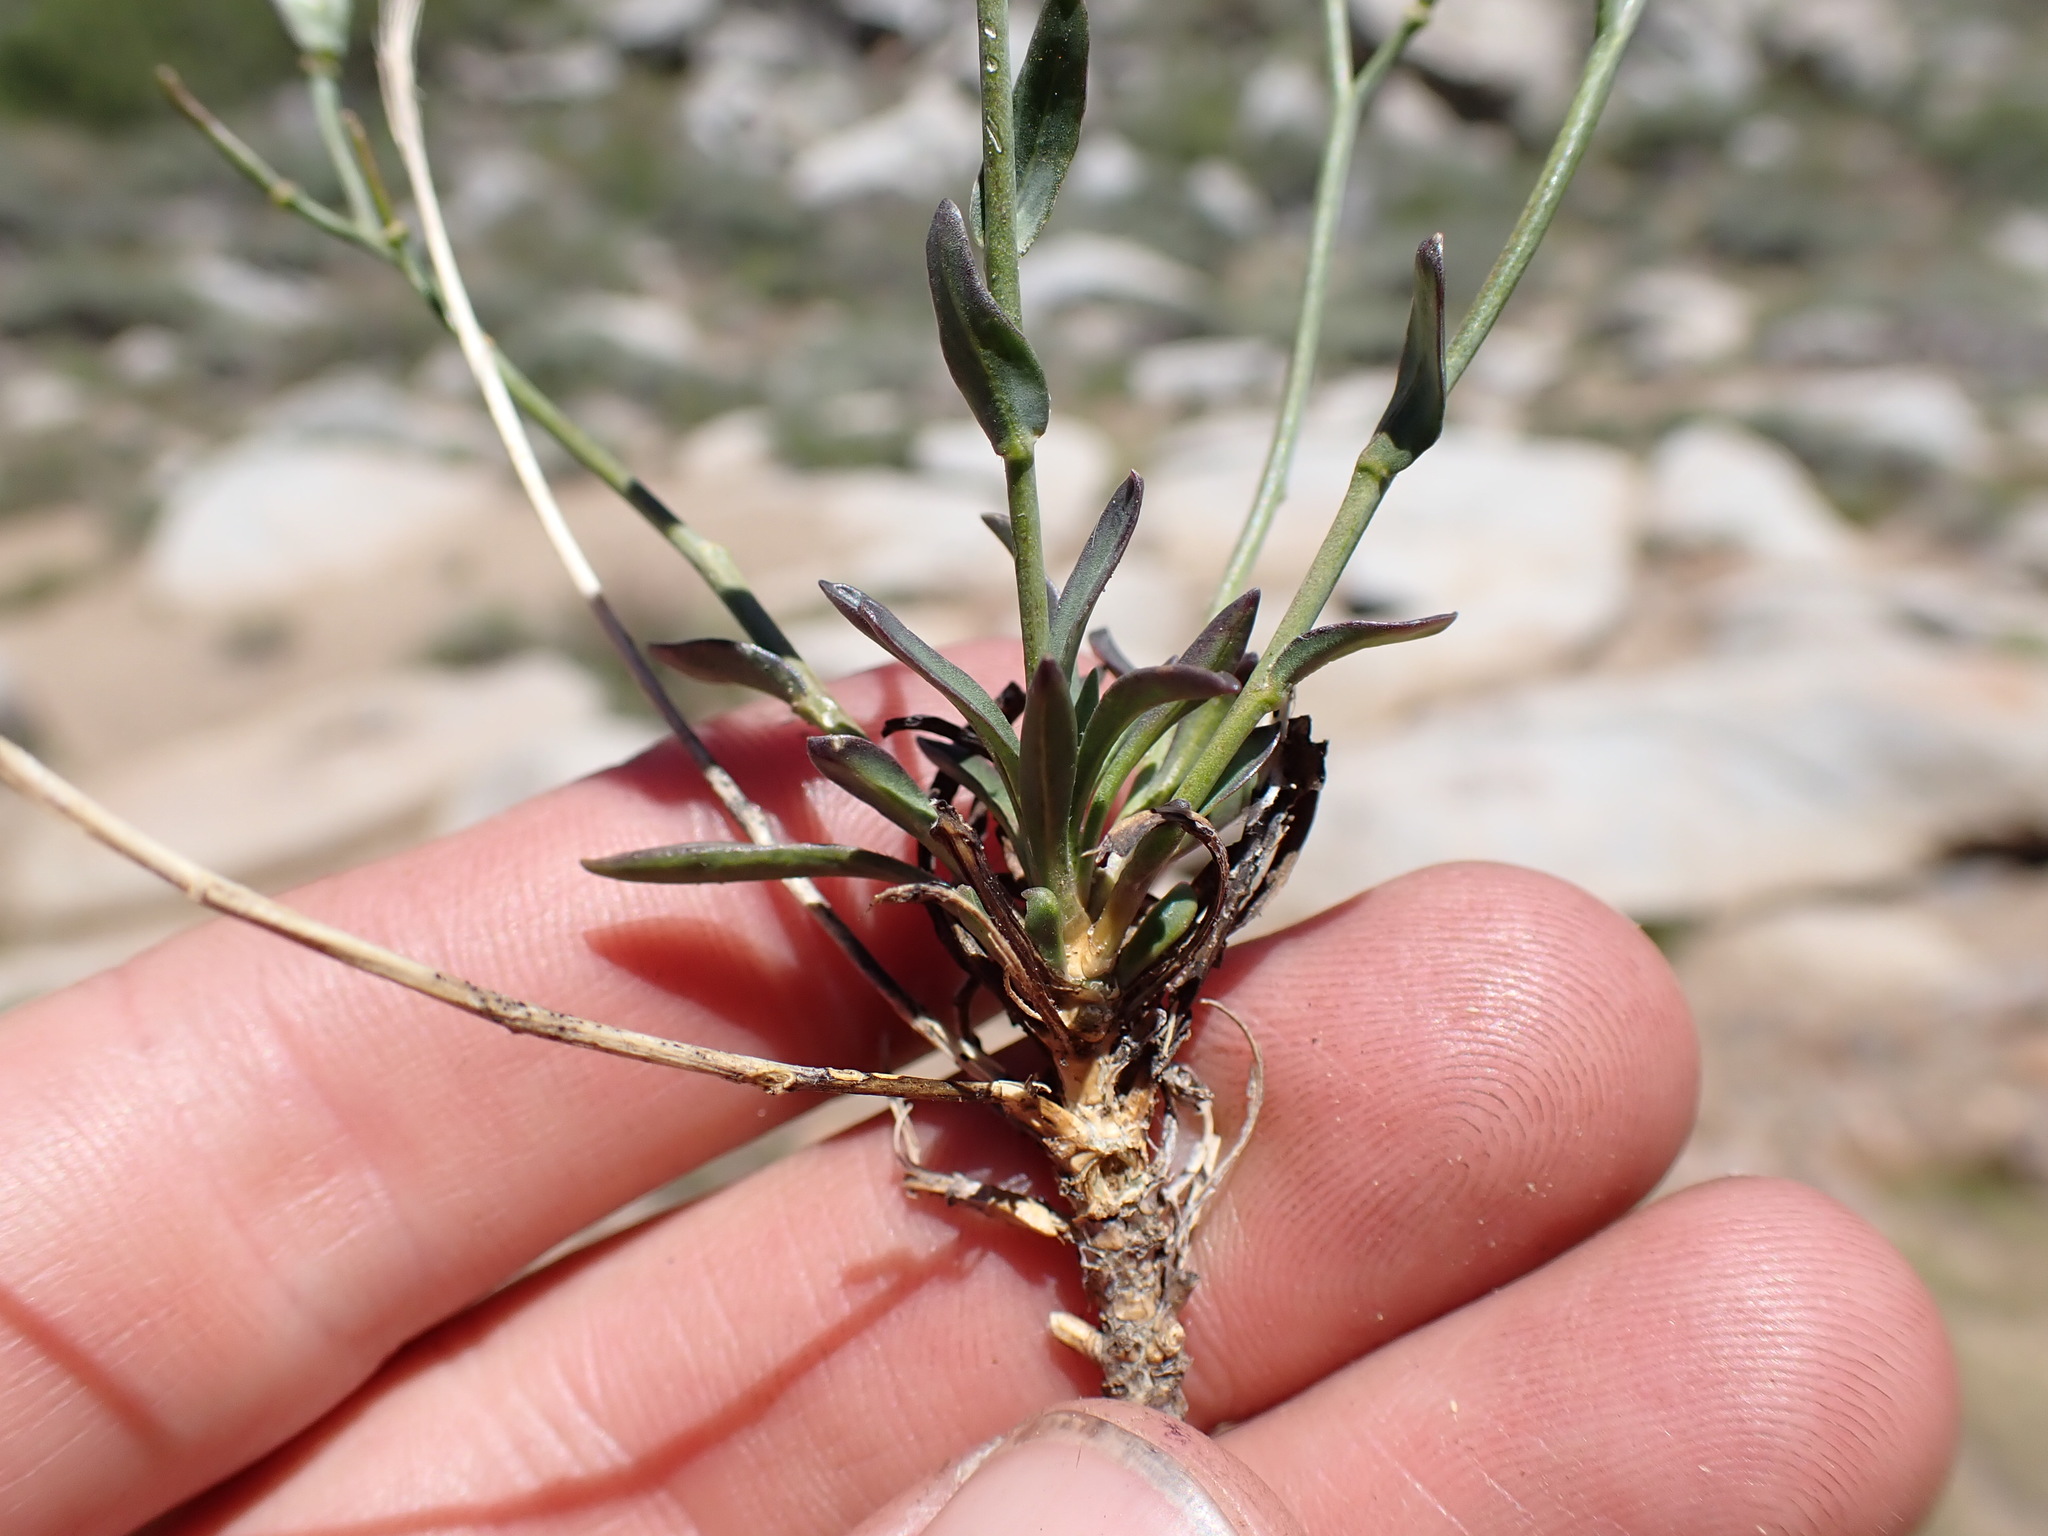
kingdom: Plantae
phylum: Tracheophyta
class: Magnoliopsida
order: Brassicales
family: Brassicaceae
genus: Boechera
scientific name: Boechera howellii
